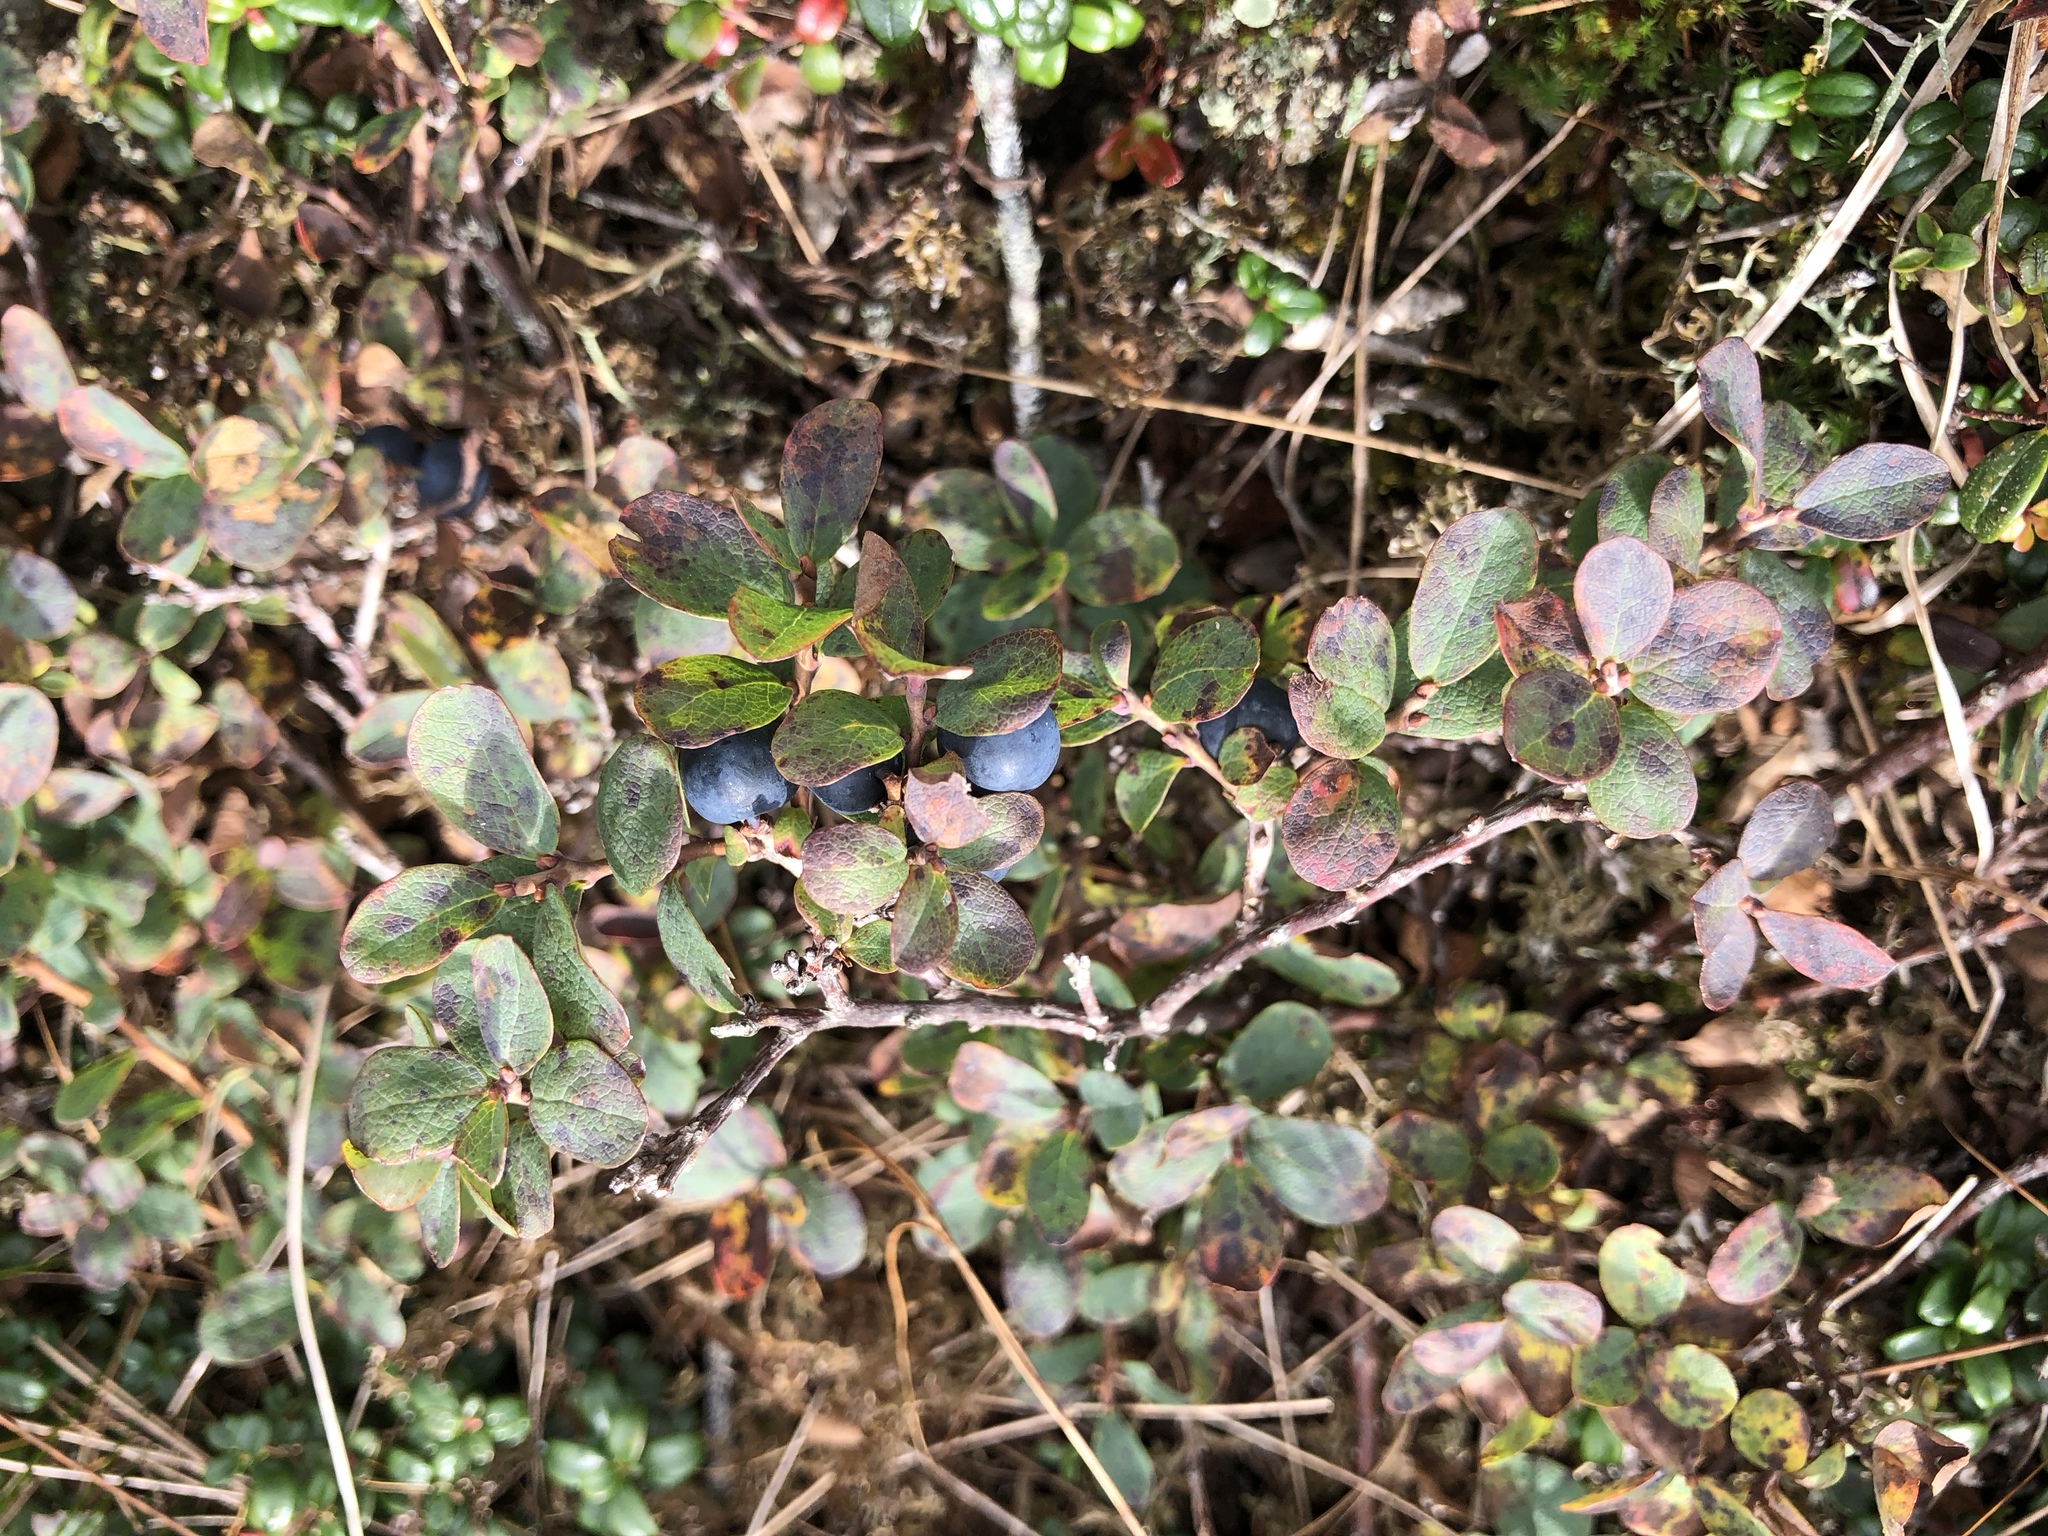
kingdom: Plantae
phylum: Tracheophyta
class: Magnoliopsida
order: Ericales
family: Ericaceae
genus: Vaccinium
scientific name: Vaccinium uliginosum
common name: Bog bilberry
